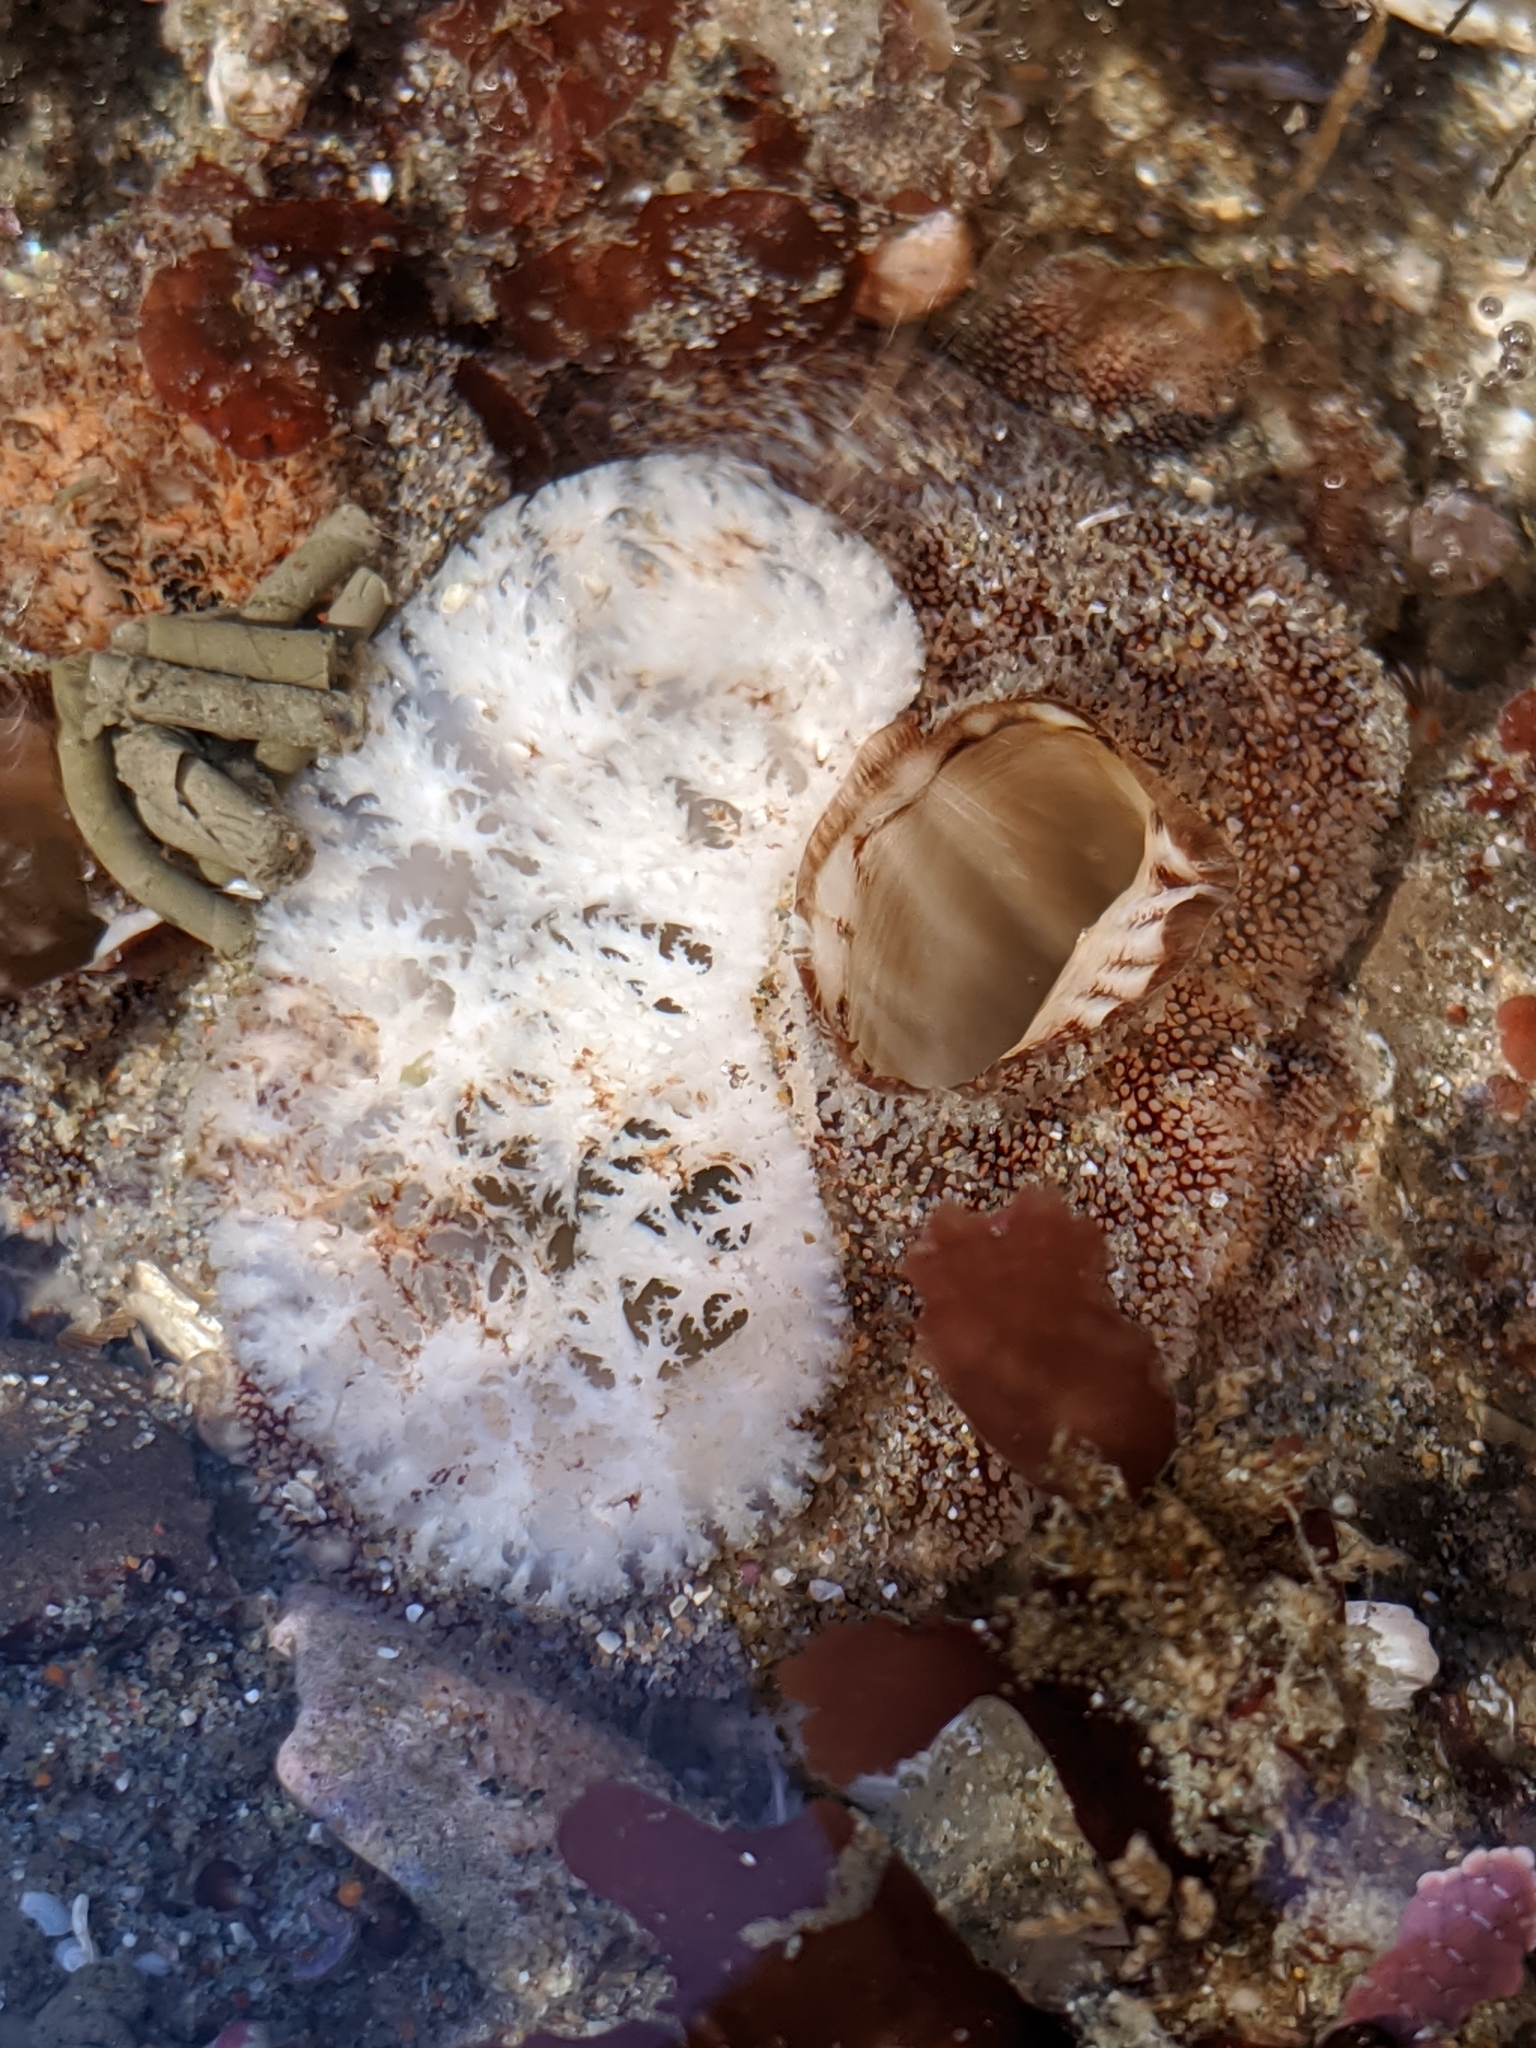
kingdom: Animalia
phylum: Mollusca
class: Bivalvia
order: Myida
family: Pholadidae
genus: Parapholas
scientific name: Parapholas californica
